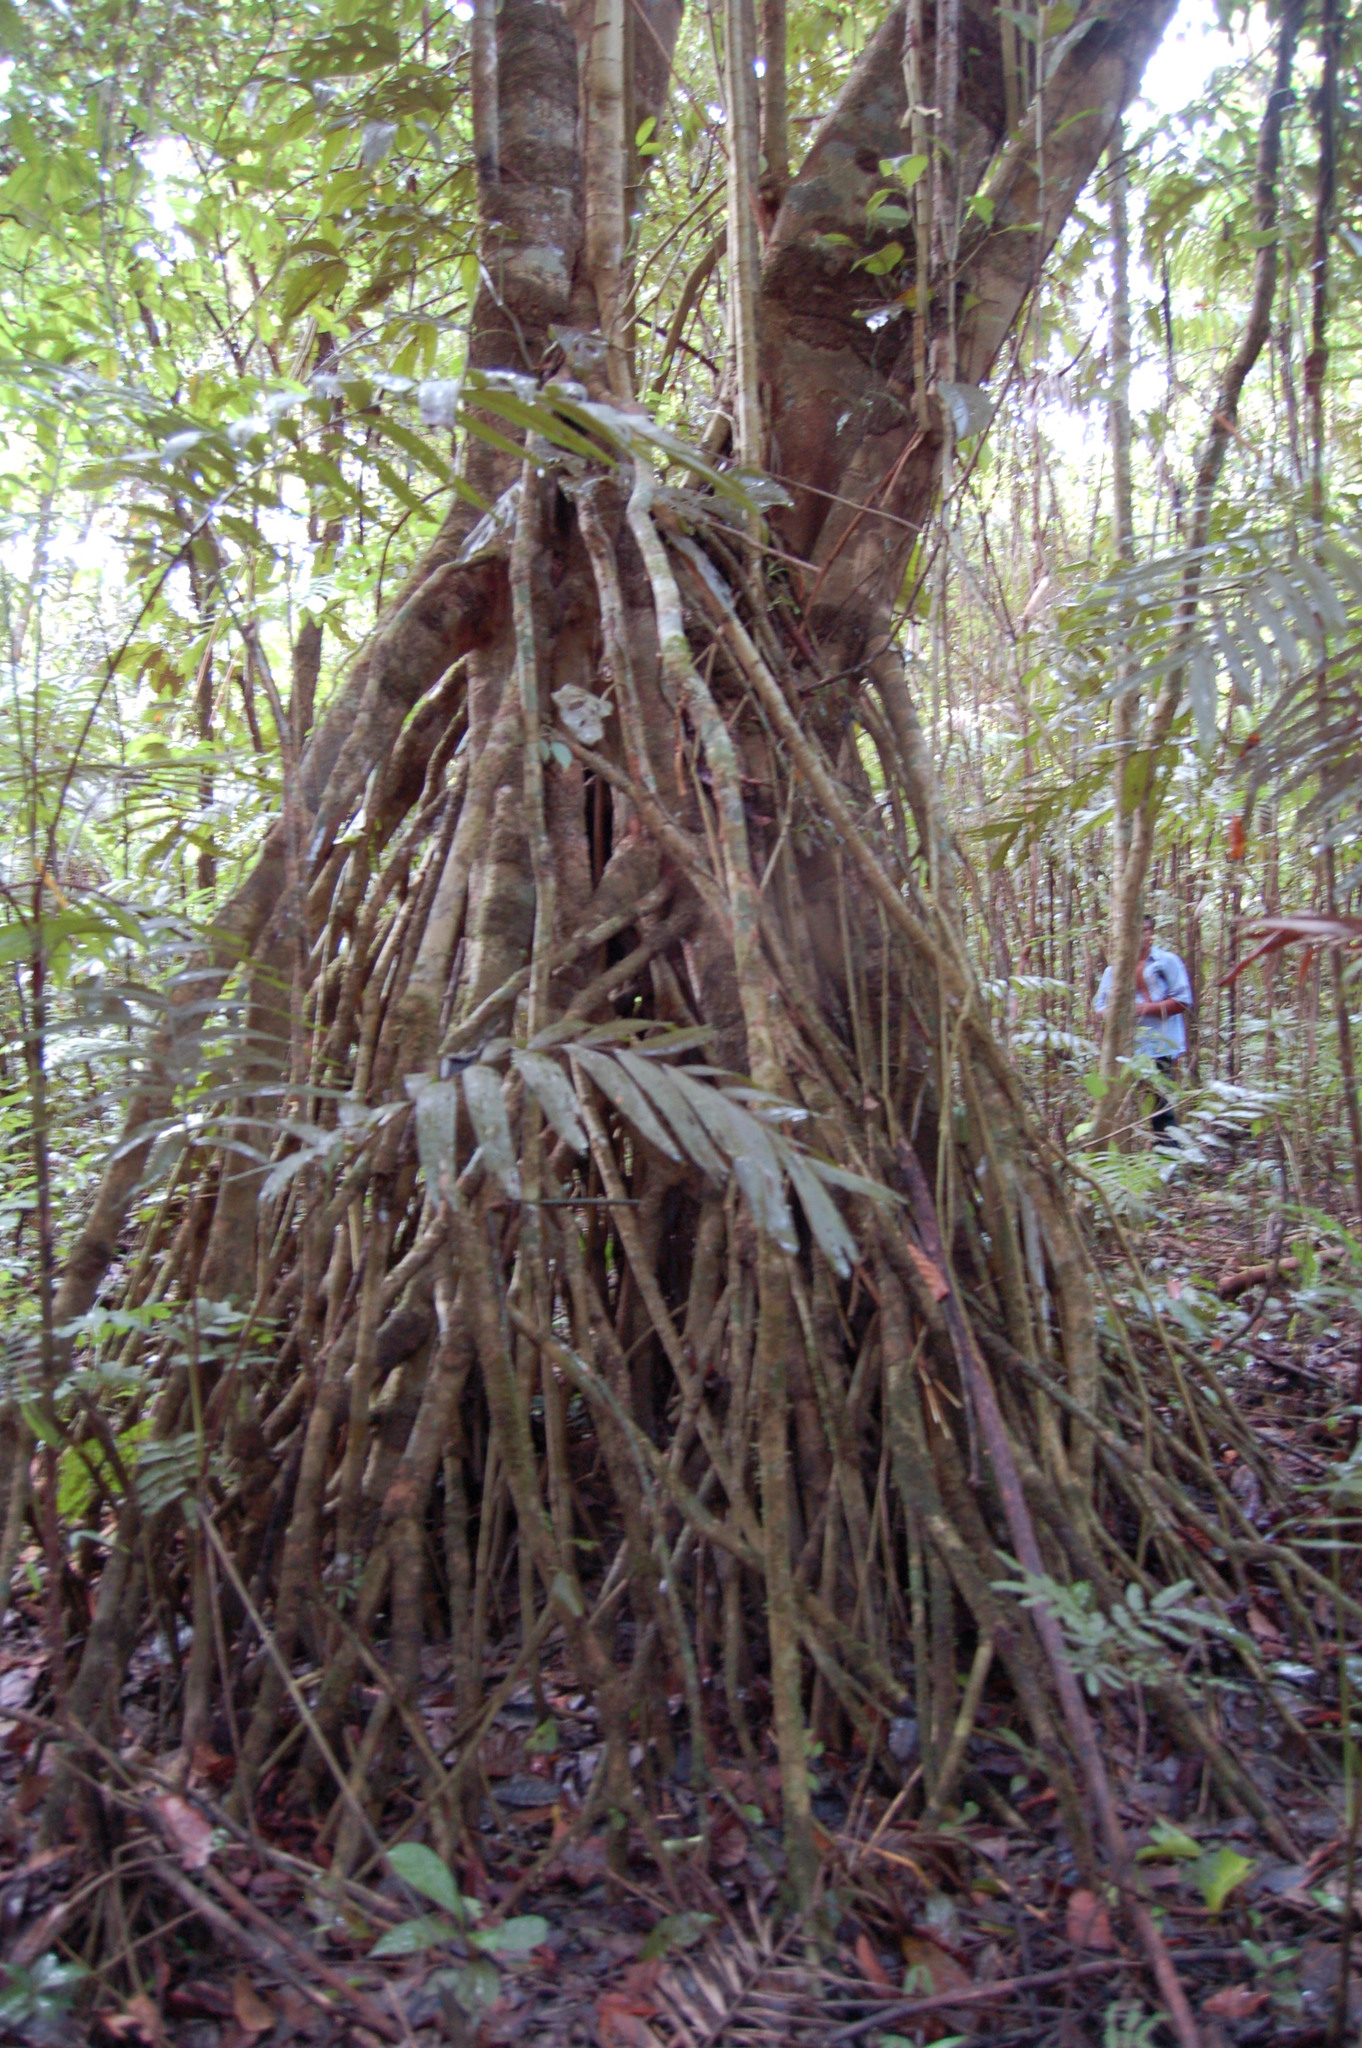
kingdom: Plantae
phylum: Tracheophyta
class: Magnoliopsida
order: Lamiales
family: Acanthaceae
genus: Bravaisia
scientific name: Bravaisia integerrima
